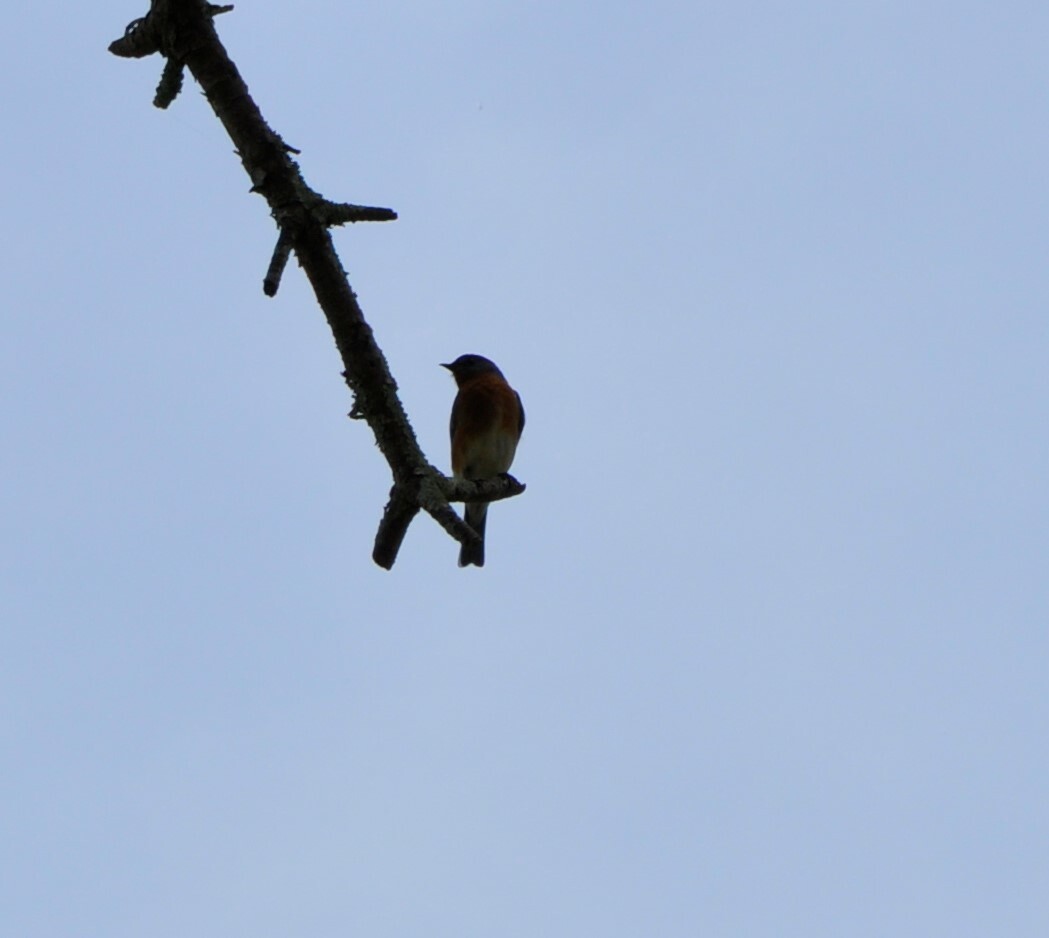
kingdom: Animalia
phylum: Chordata
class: Aves
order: Passeriformes
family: Turdidae
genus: Sialia
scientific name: Sialia sialis
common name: Eastern bluebird
